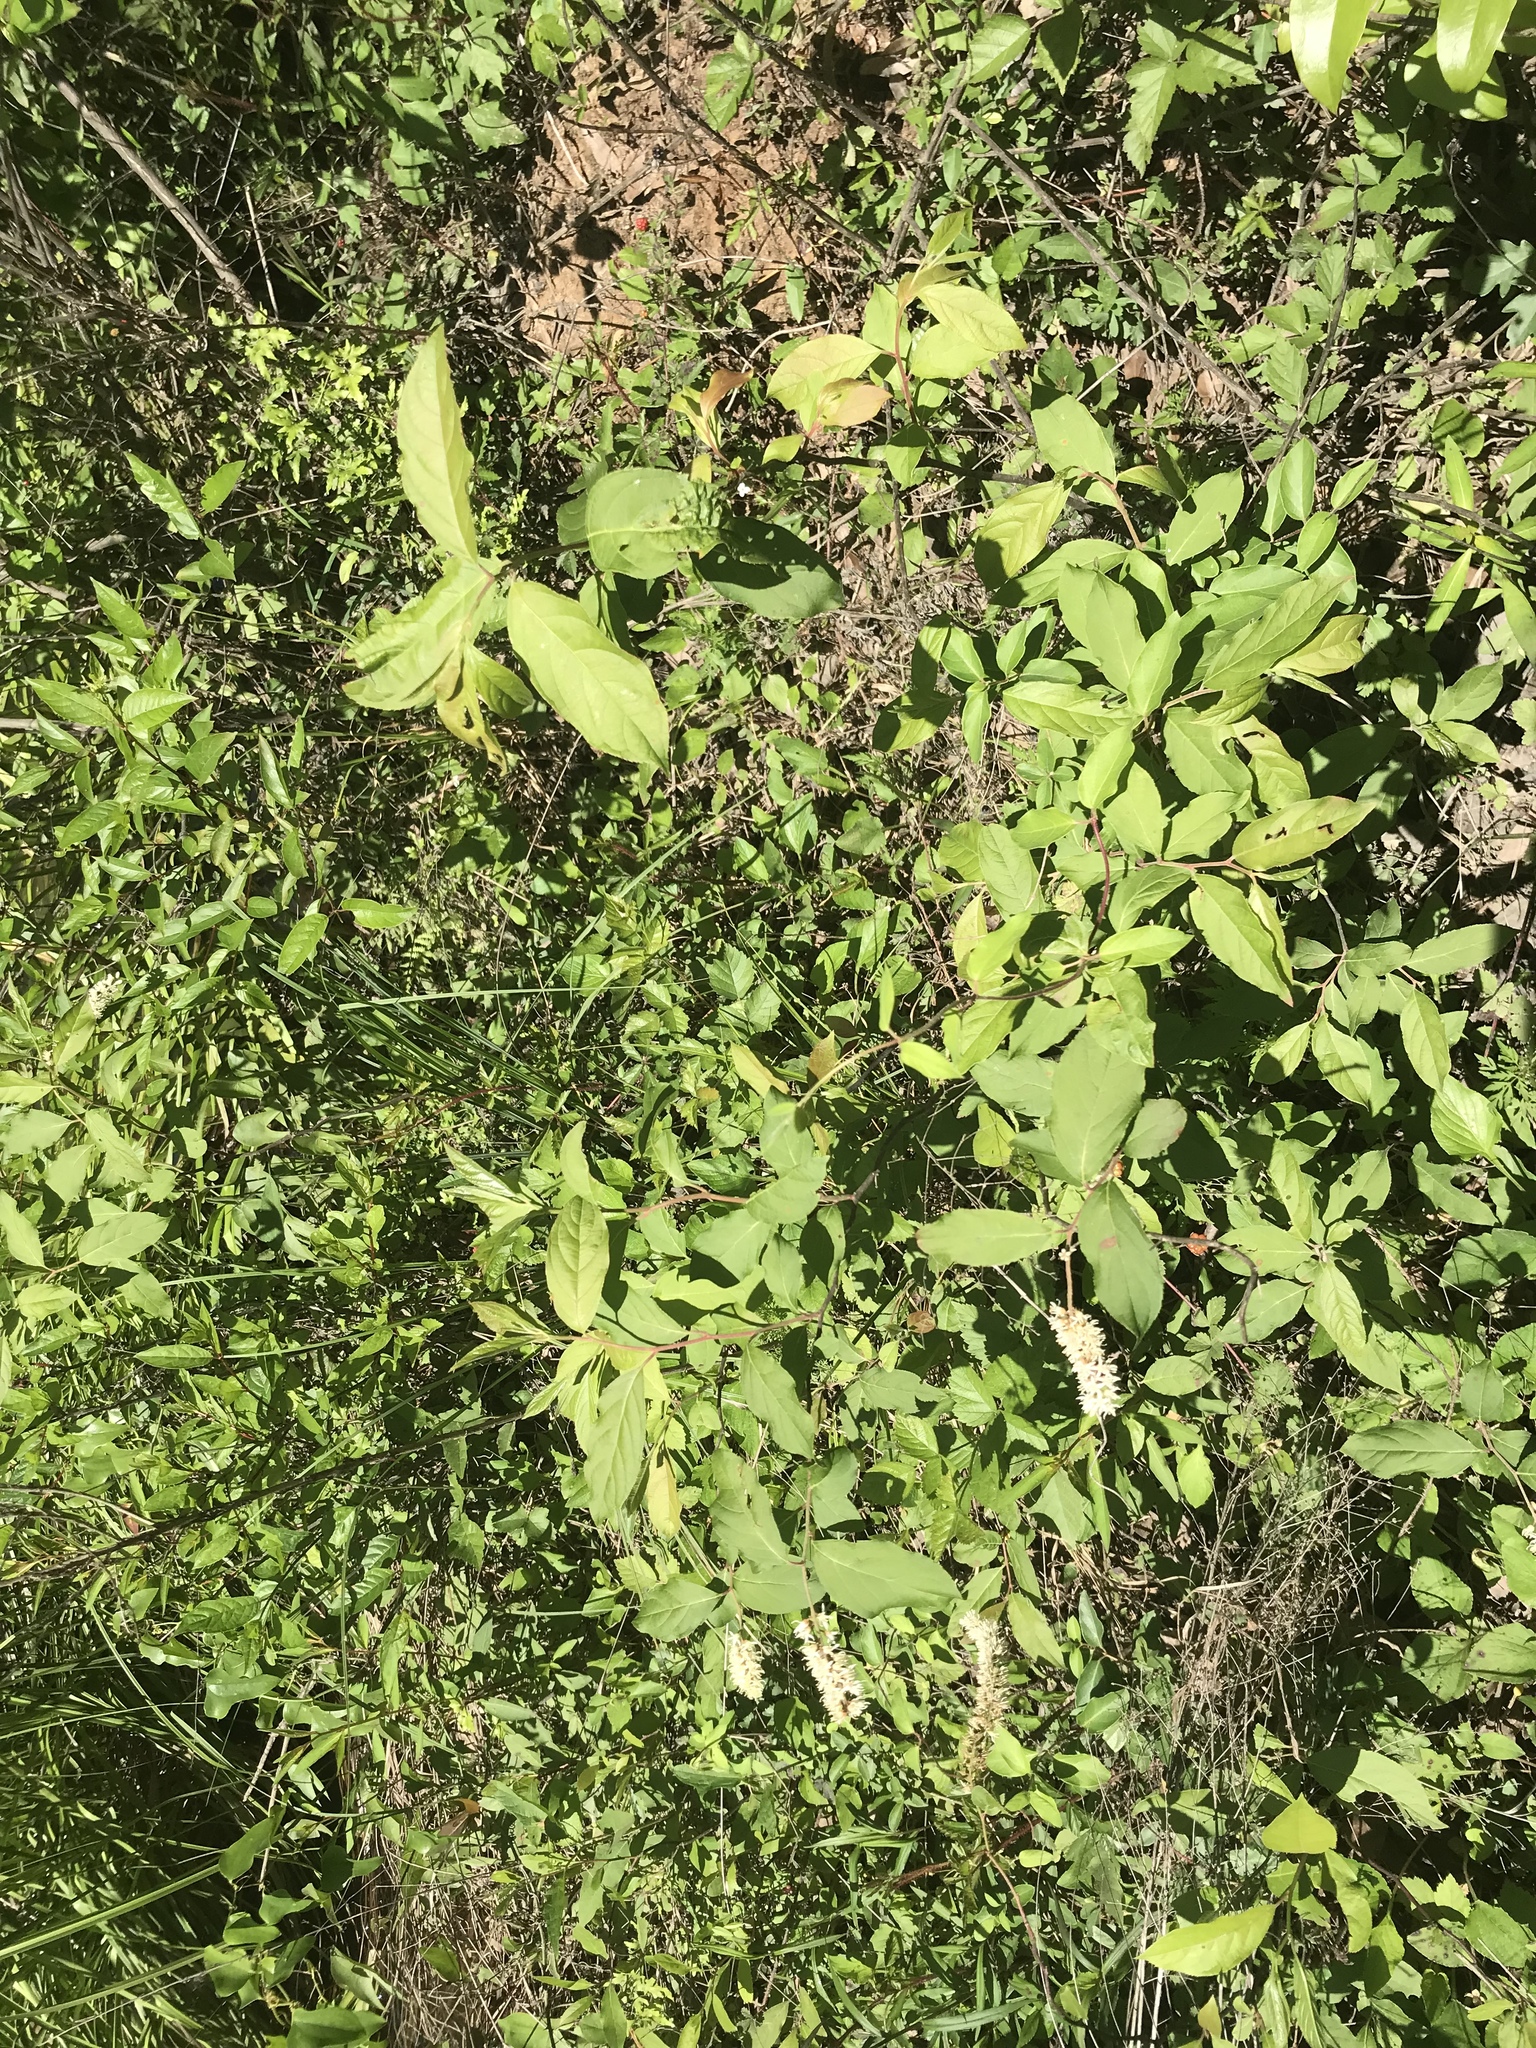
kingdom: Plantae
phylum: Tracheophyta
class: Magnoliopsida
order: Saxifragales
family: Iteaceae
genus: Itea
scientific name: Itea virginica
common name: Sweetspire
